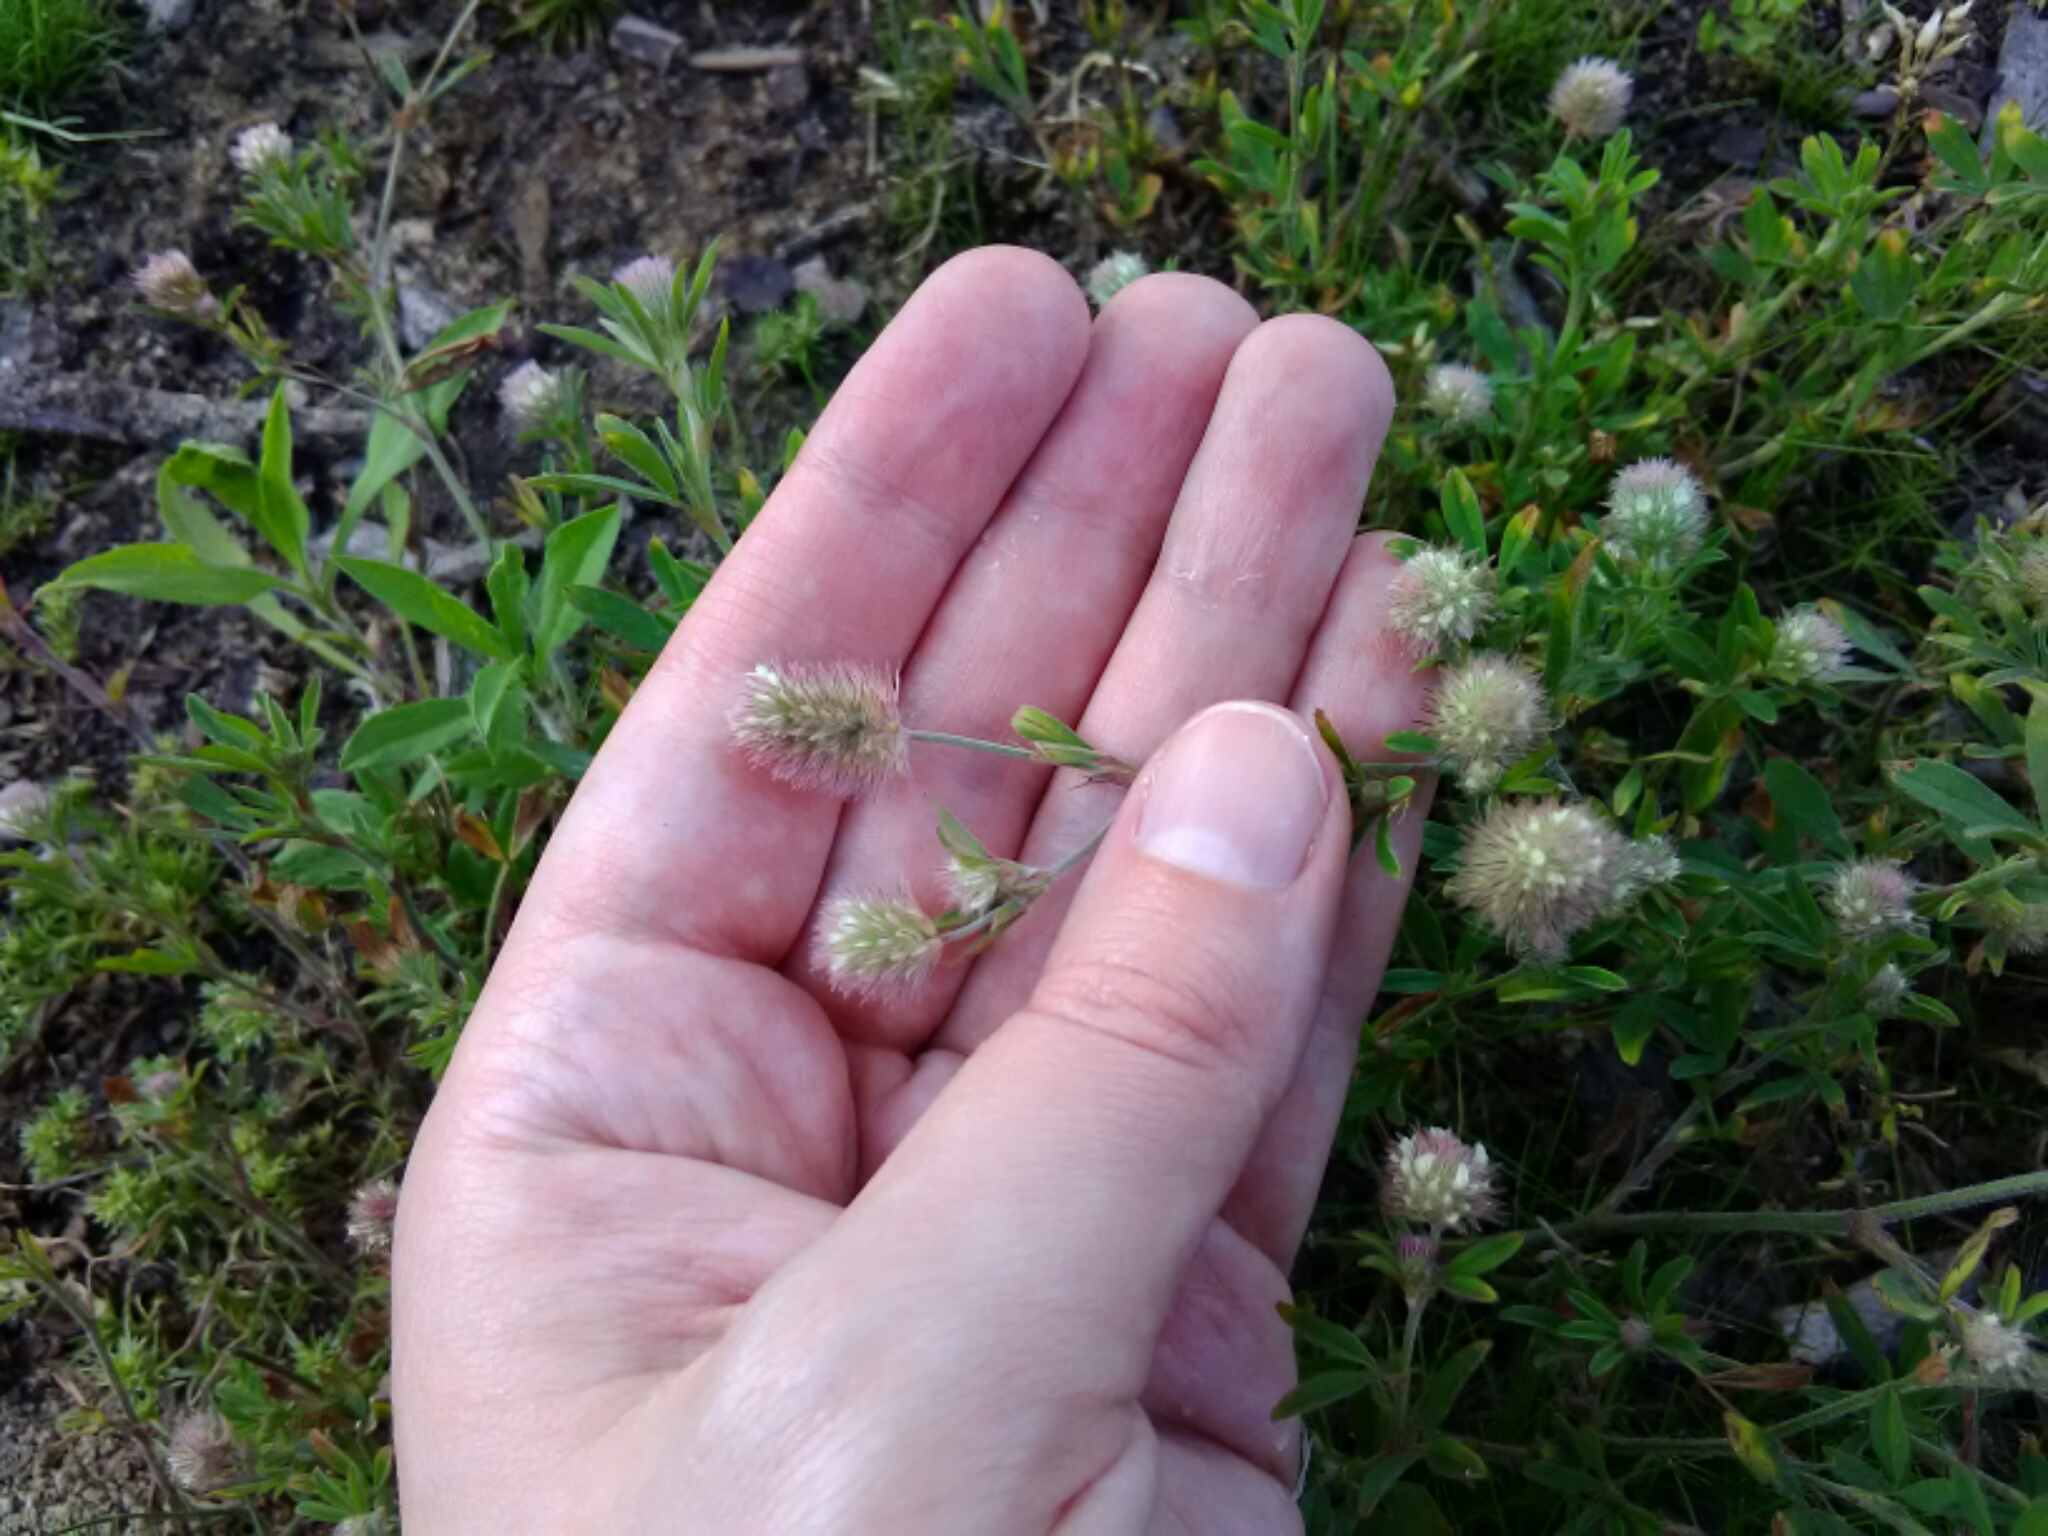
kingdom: Plantae
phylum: Tracheophyta
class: Magnoliopsida
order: Fabales
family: Fabaceae
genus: Trifolium
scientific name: Trifolium arvense
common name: Hare's-foot clover
